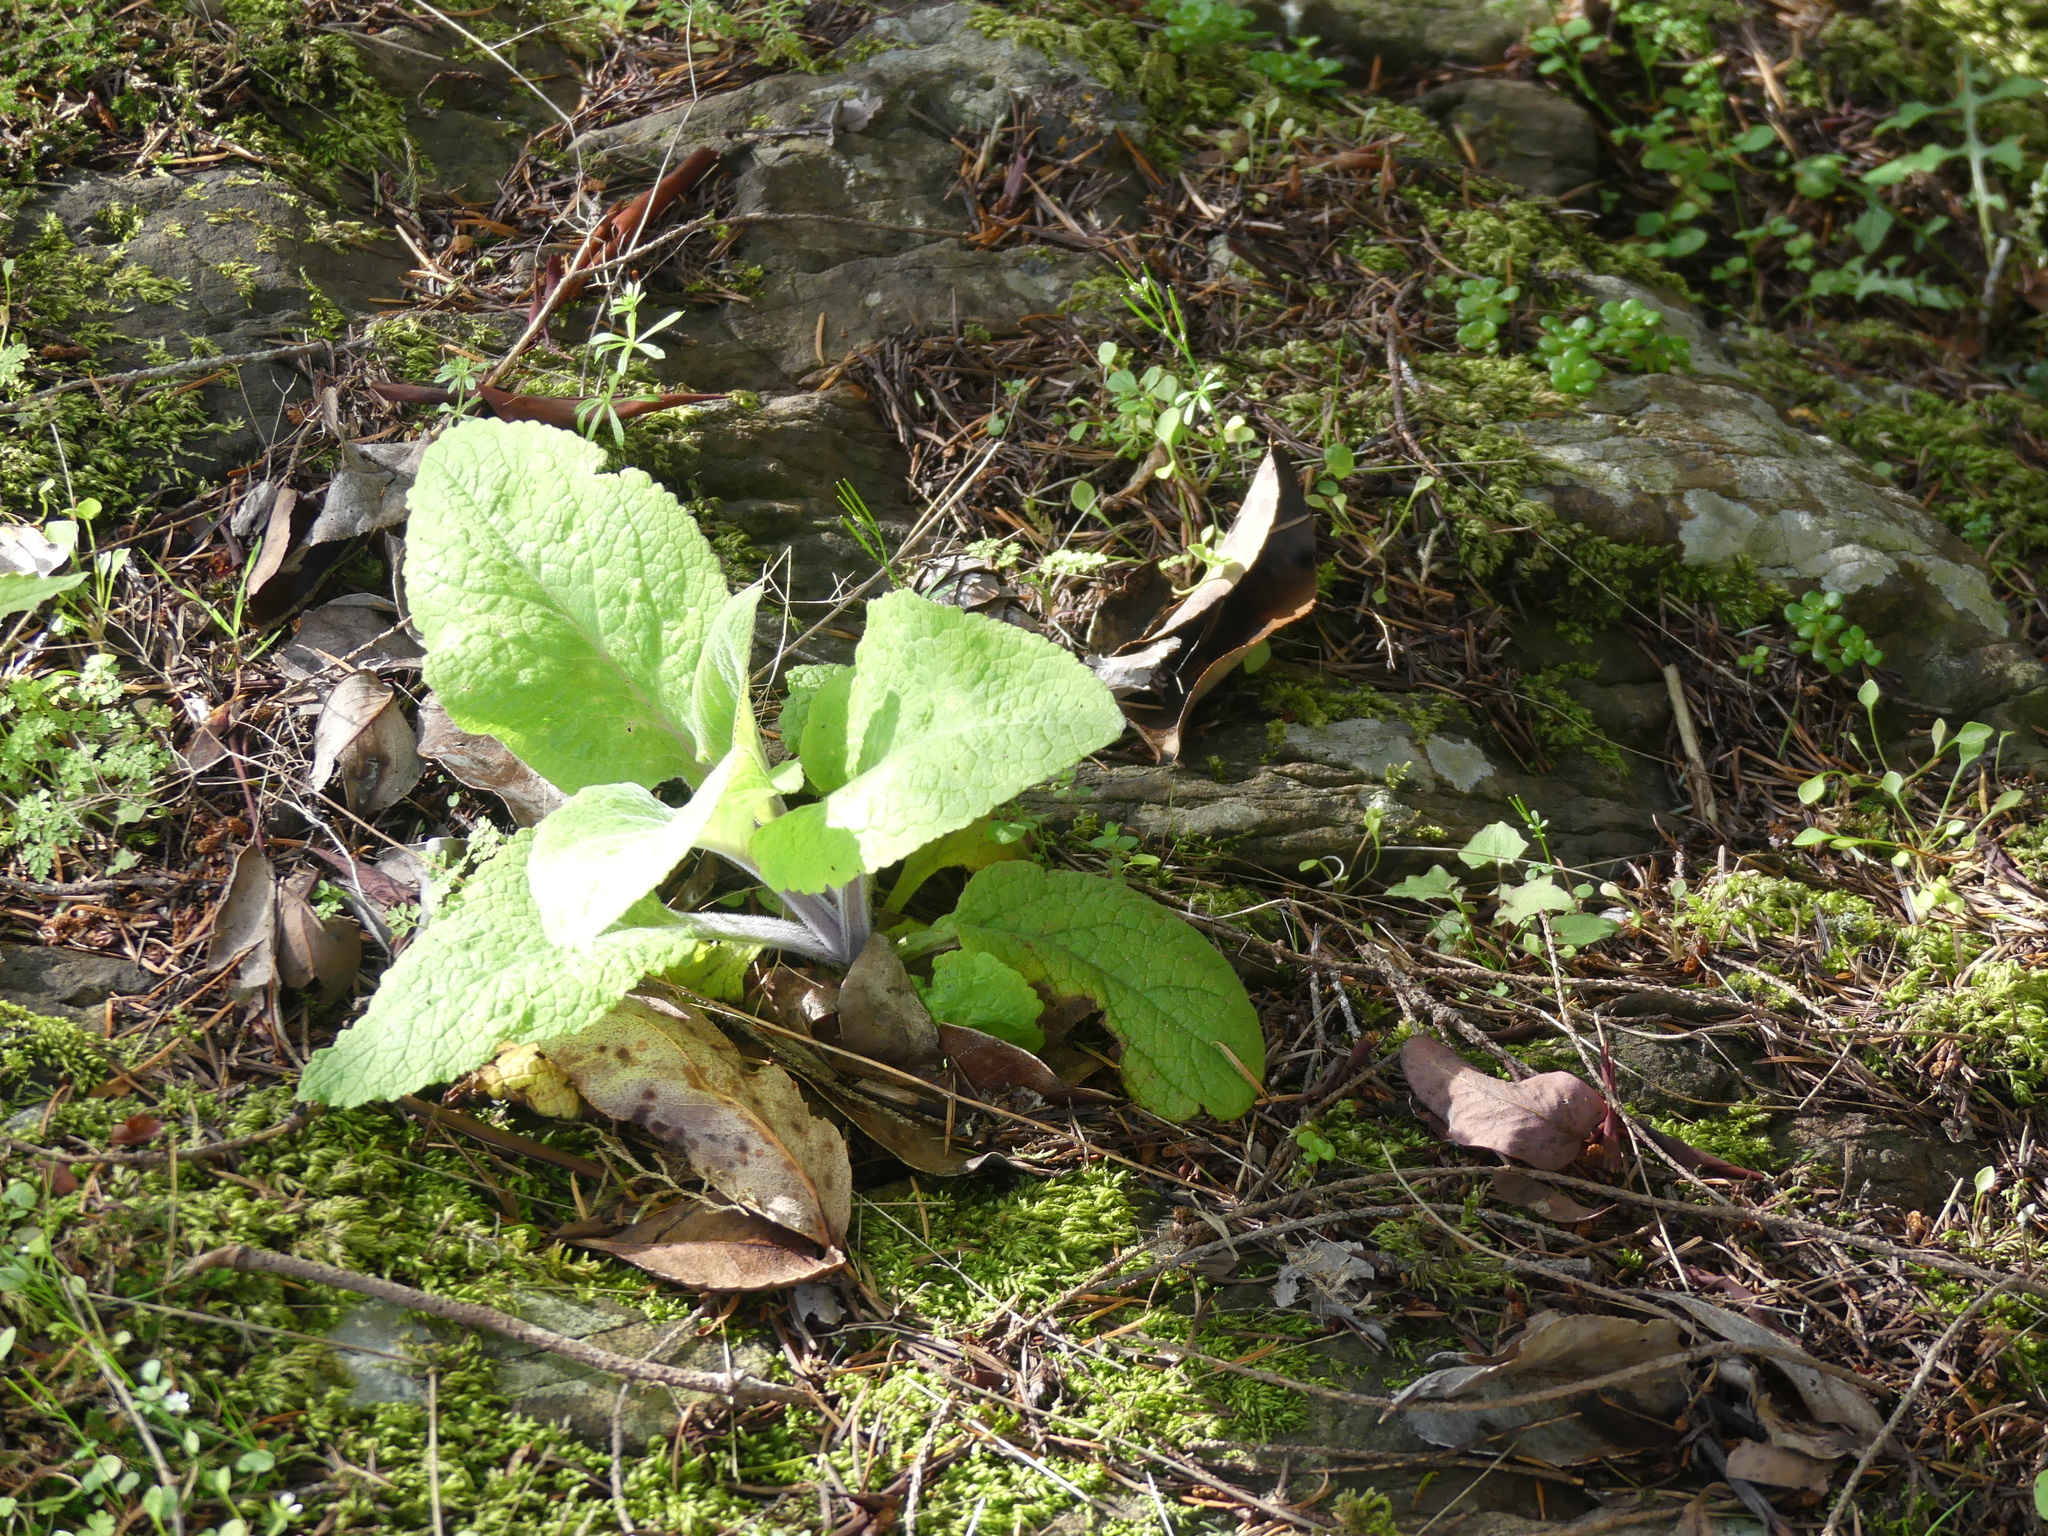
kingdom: Plantae
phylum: Tracheophyta
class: Magnoliopsida
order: Lamiales
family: Plantaginaceae
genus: Digitalis
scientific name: Digitalis purpurea
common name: Foxglove
